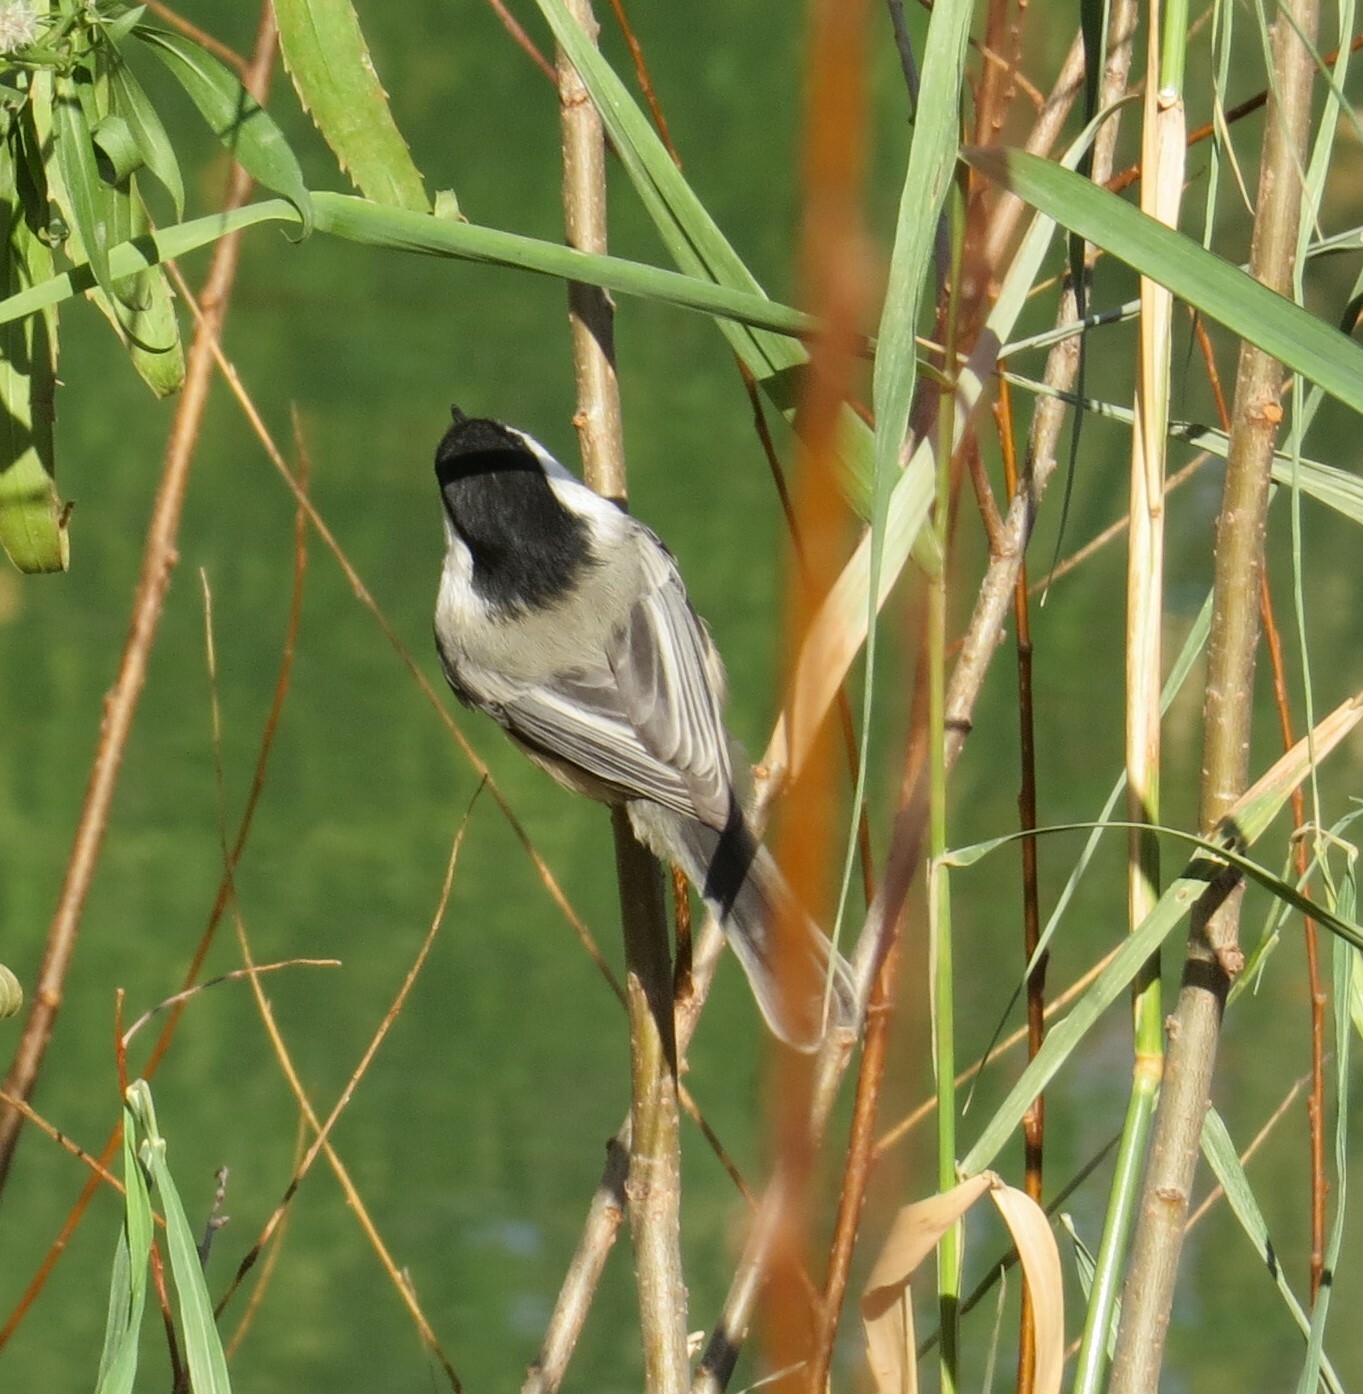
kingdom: Animalia
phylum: Chordata
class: Aves
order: Passeriformes
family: Paridae
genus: Poecile
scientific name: Poecile atricapillus
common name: Black-capped chickadee
